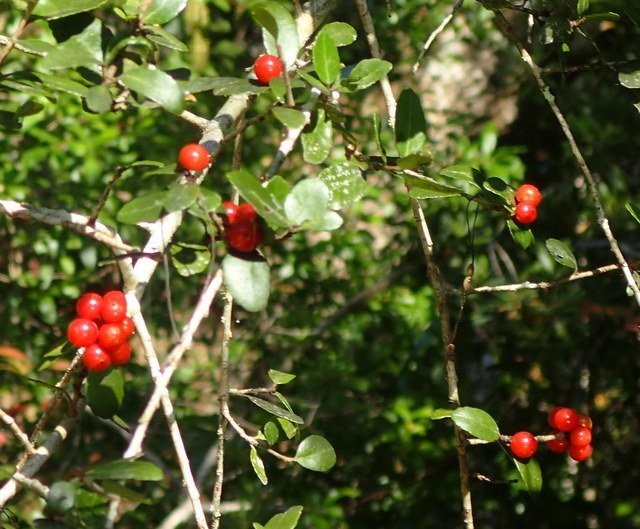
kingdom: Plantae
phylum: Tracheophyta
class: Magnoliopsida
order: Aquifoliales
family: Aquifoliaceae
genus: Ilex
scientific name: Ilex vomitoria
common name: Yaupon holly
